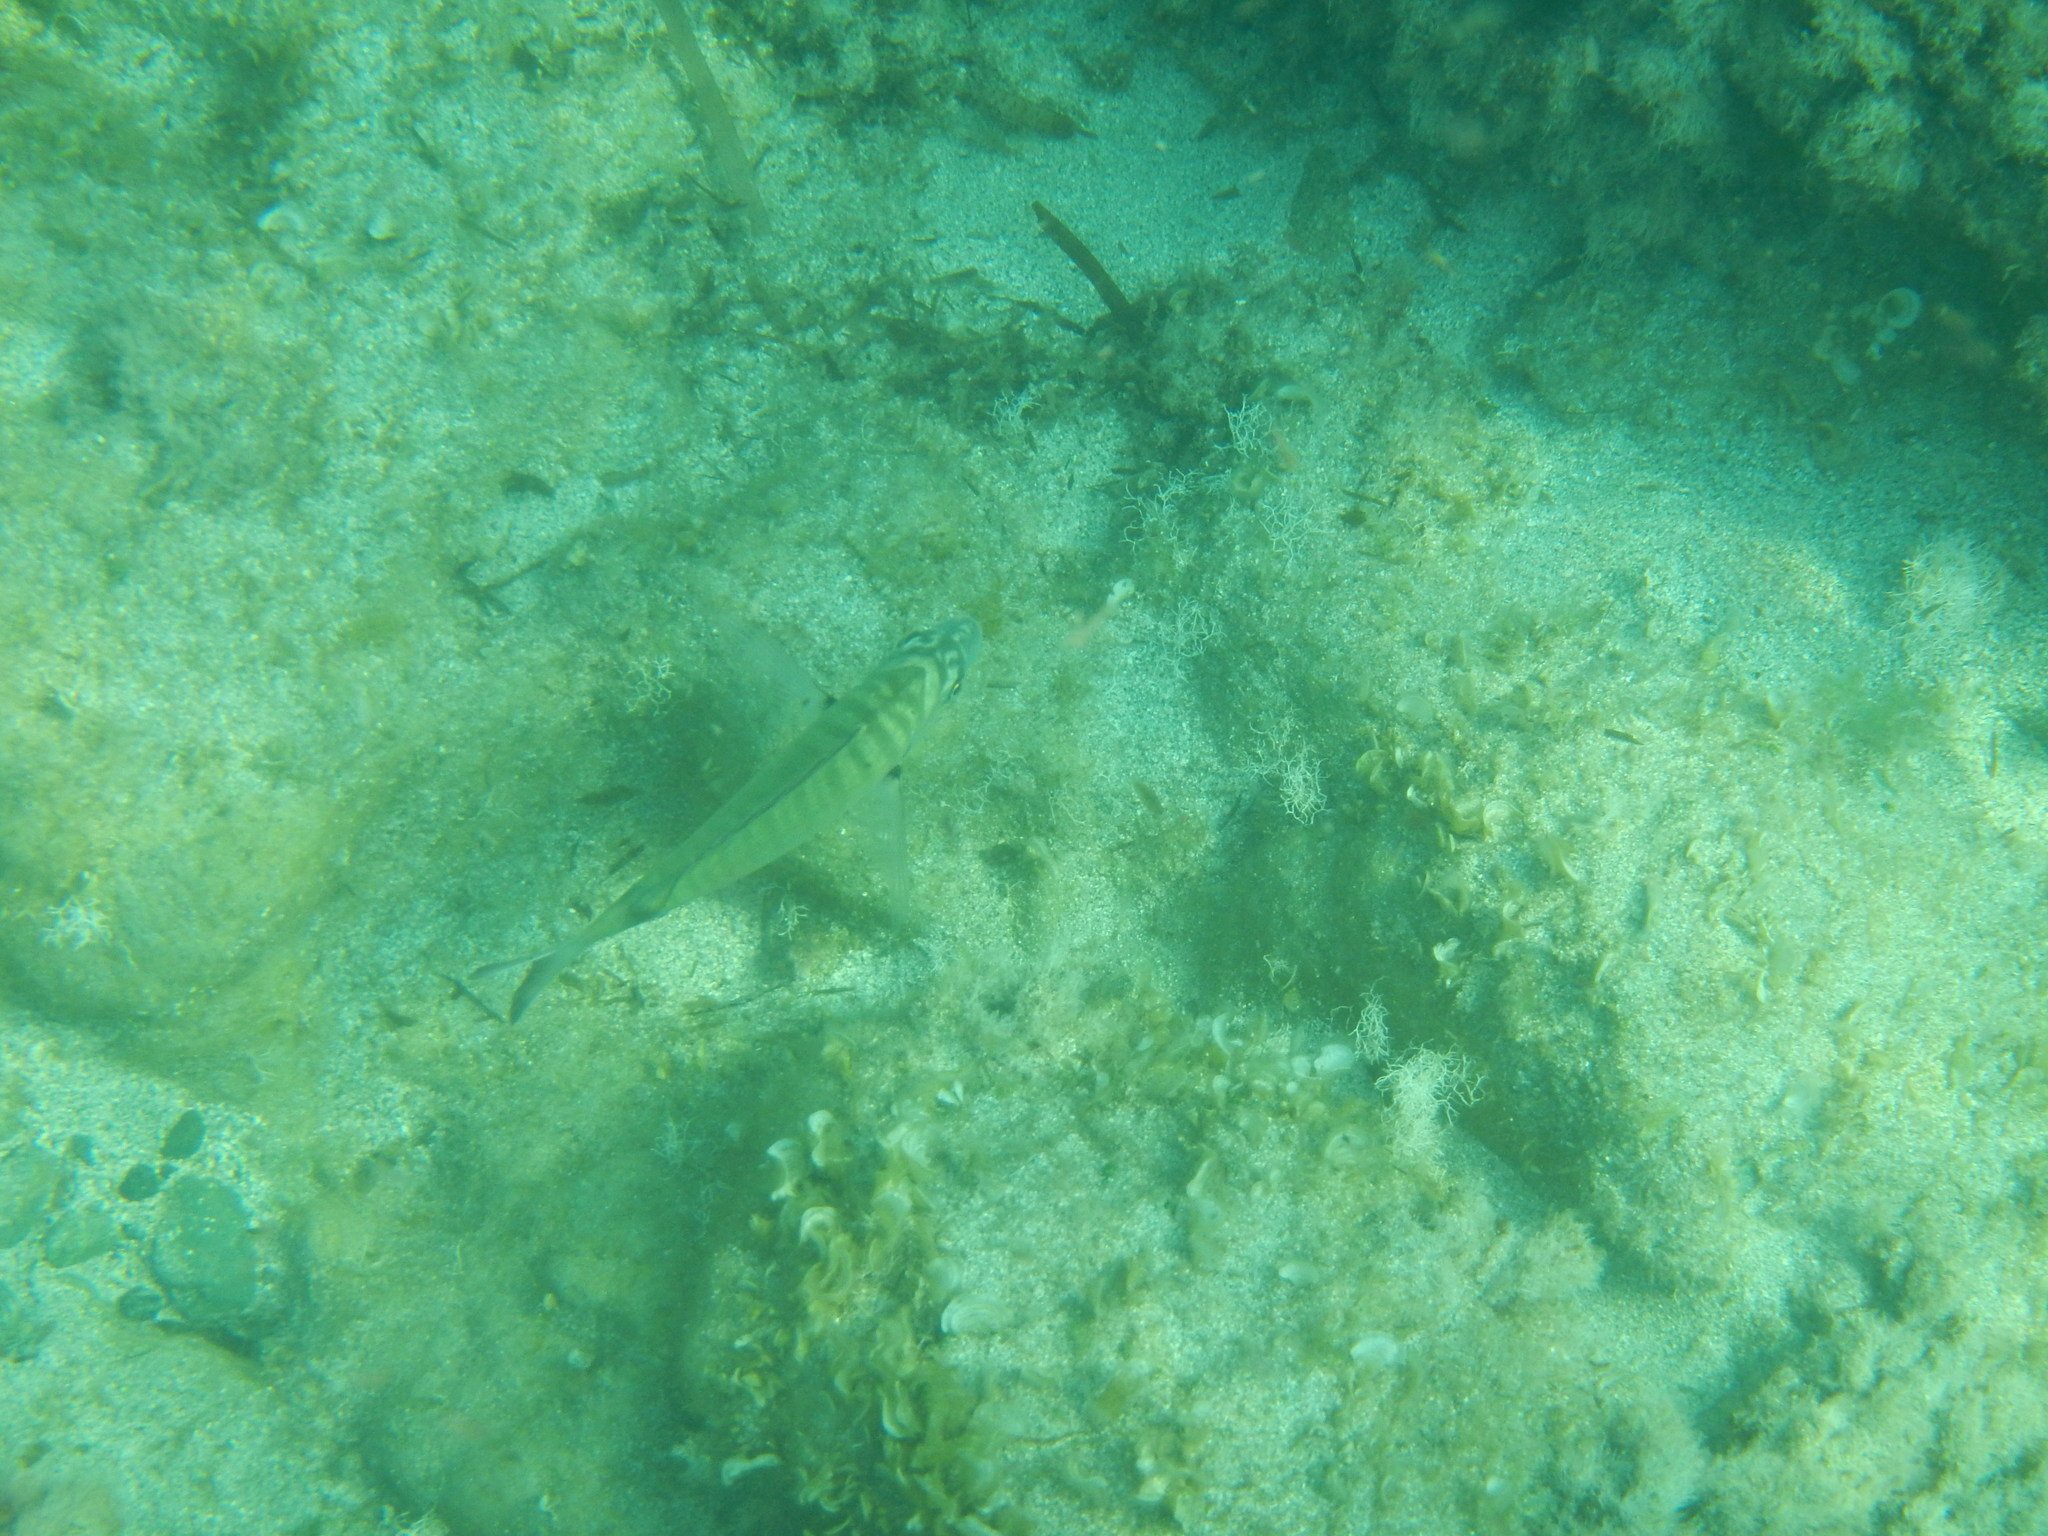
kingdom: Animalia
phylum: Chordata
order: Perciformes
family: Sparidae
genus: Diplodus
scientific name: Diplodus puntazzo
